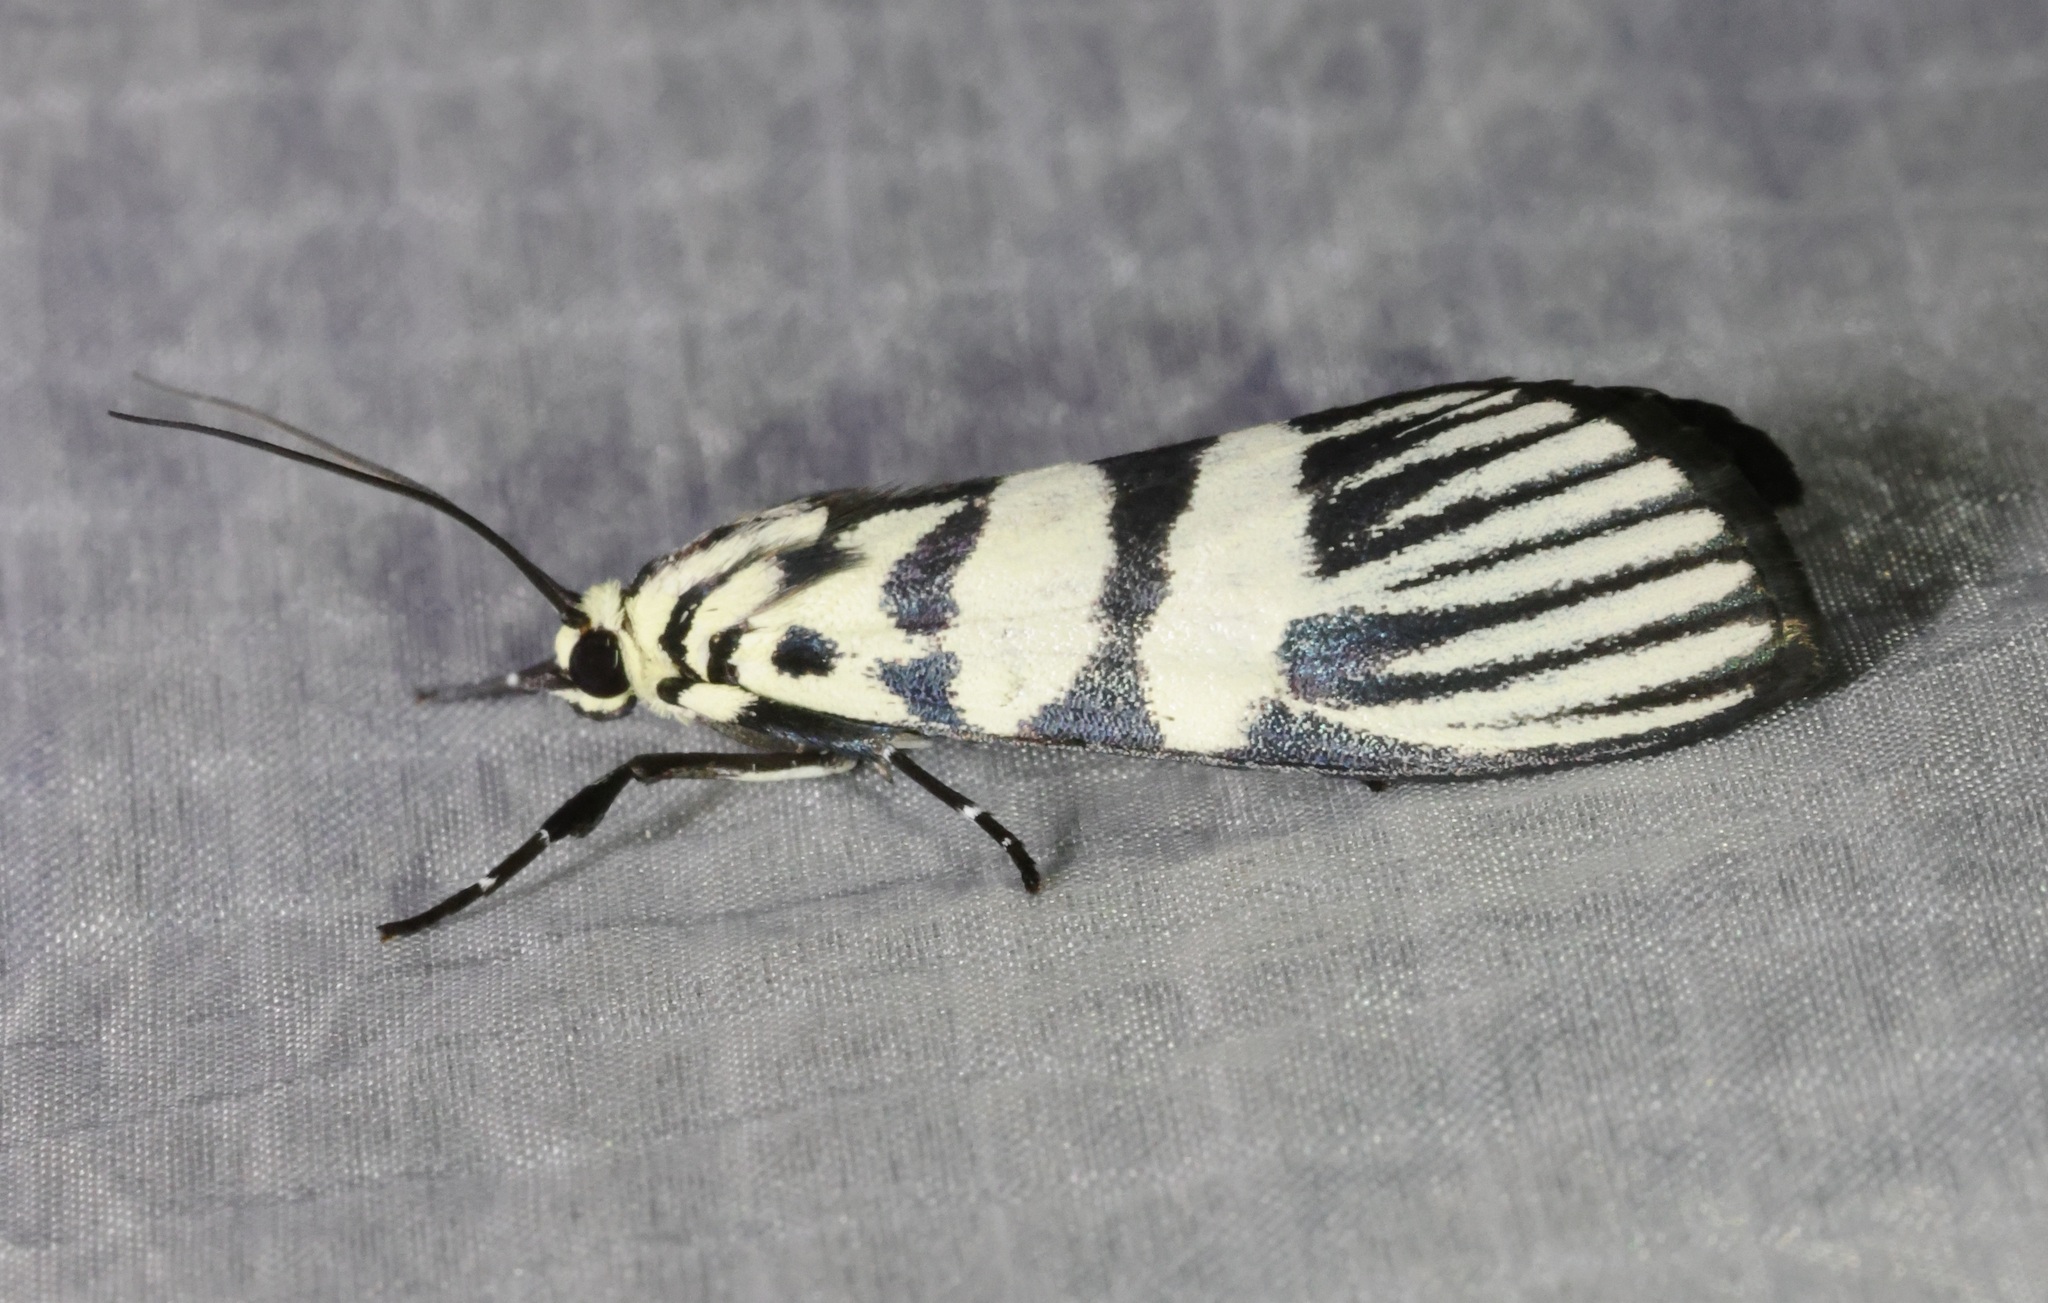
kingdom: Animalia
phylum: Arthropoda
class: Insecta
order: Lepidoptera
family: Crambidae
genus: Heortia
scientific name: Heortia vitessoides
